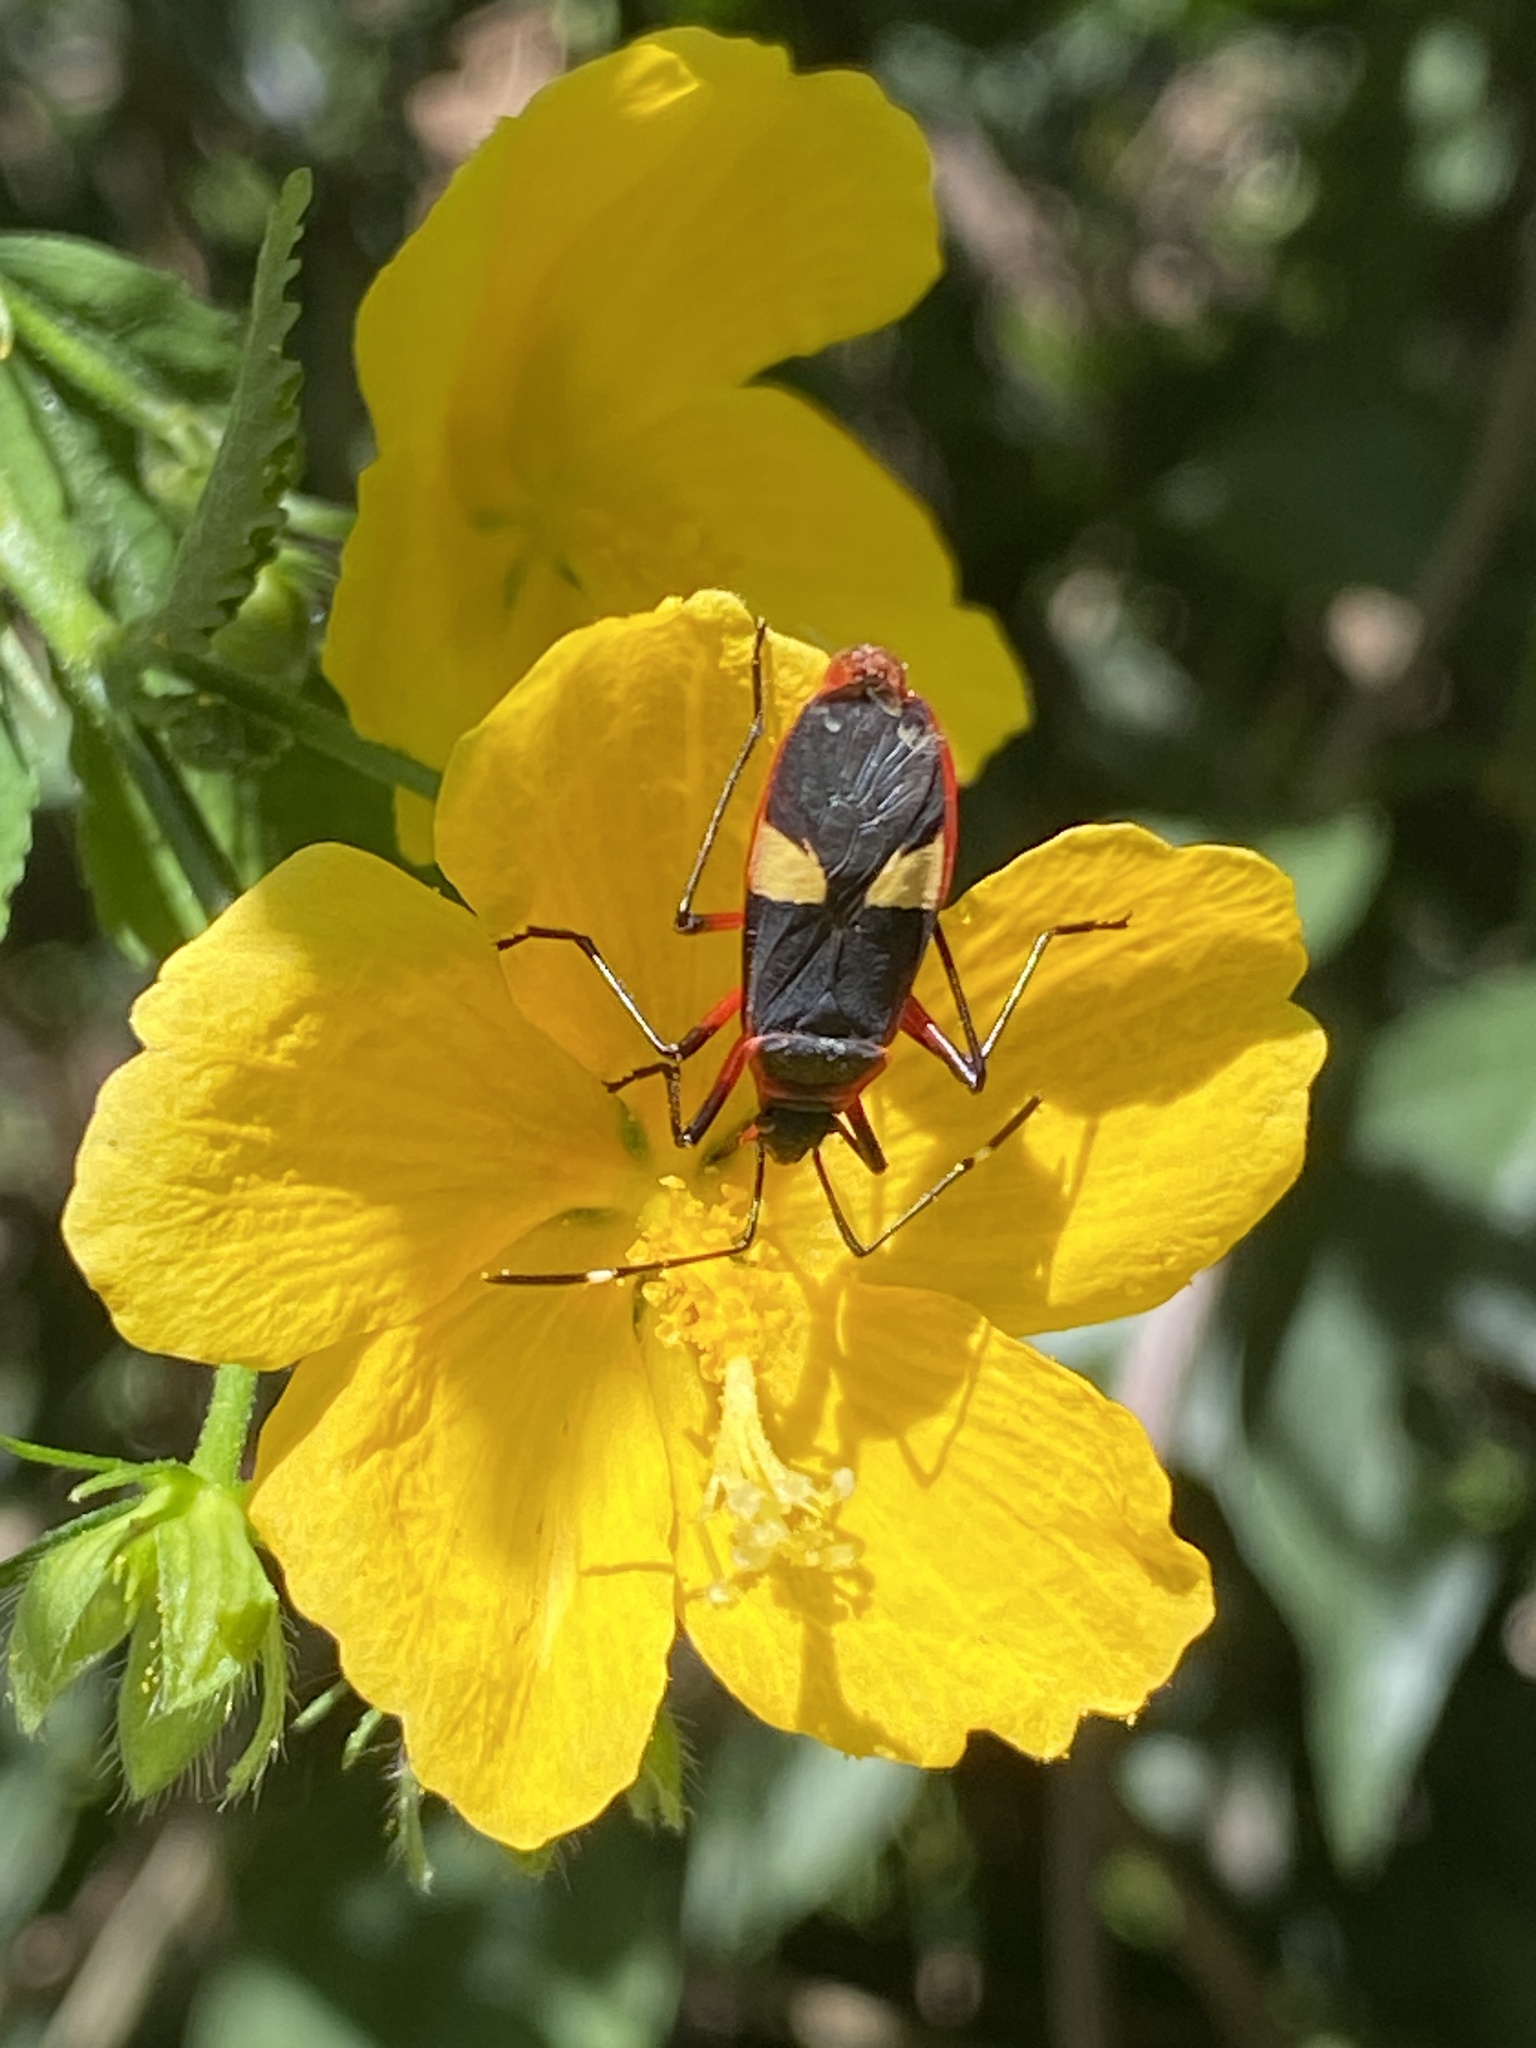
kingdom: Animalia
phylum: Arthropoda
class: Insecta
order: Hemiptera
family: Pyrrhocoridae
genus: Dysdercus
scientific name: Dysdercus albofasciatus
